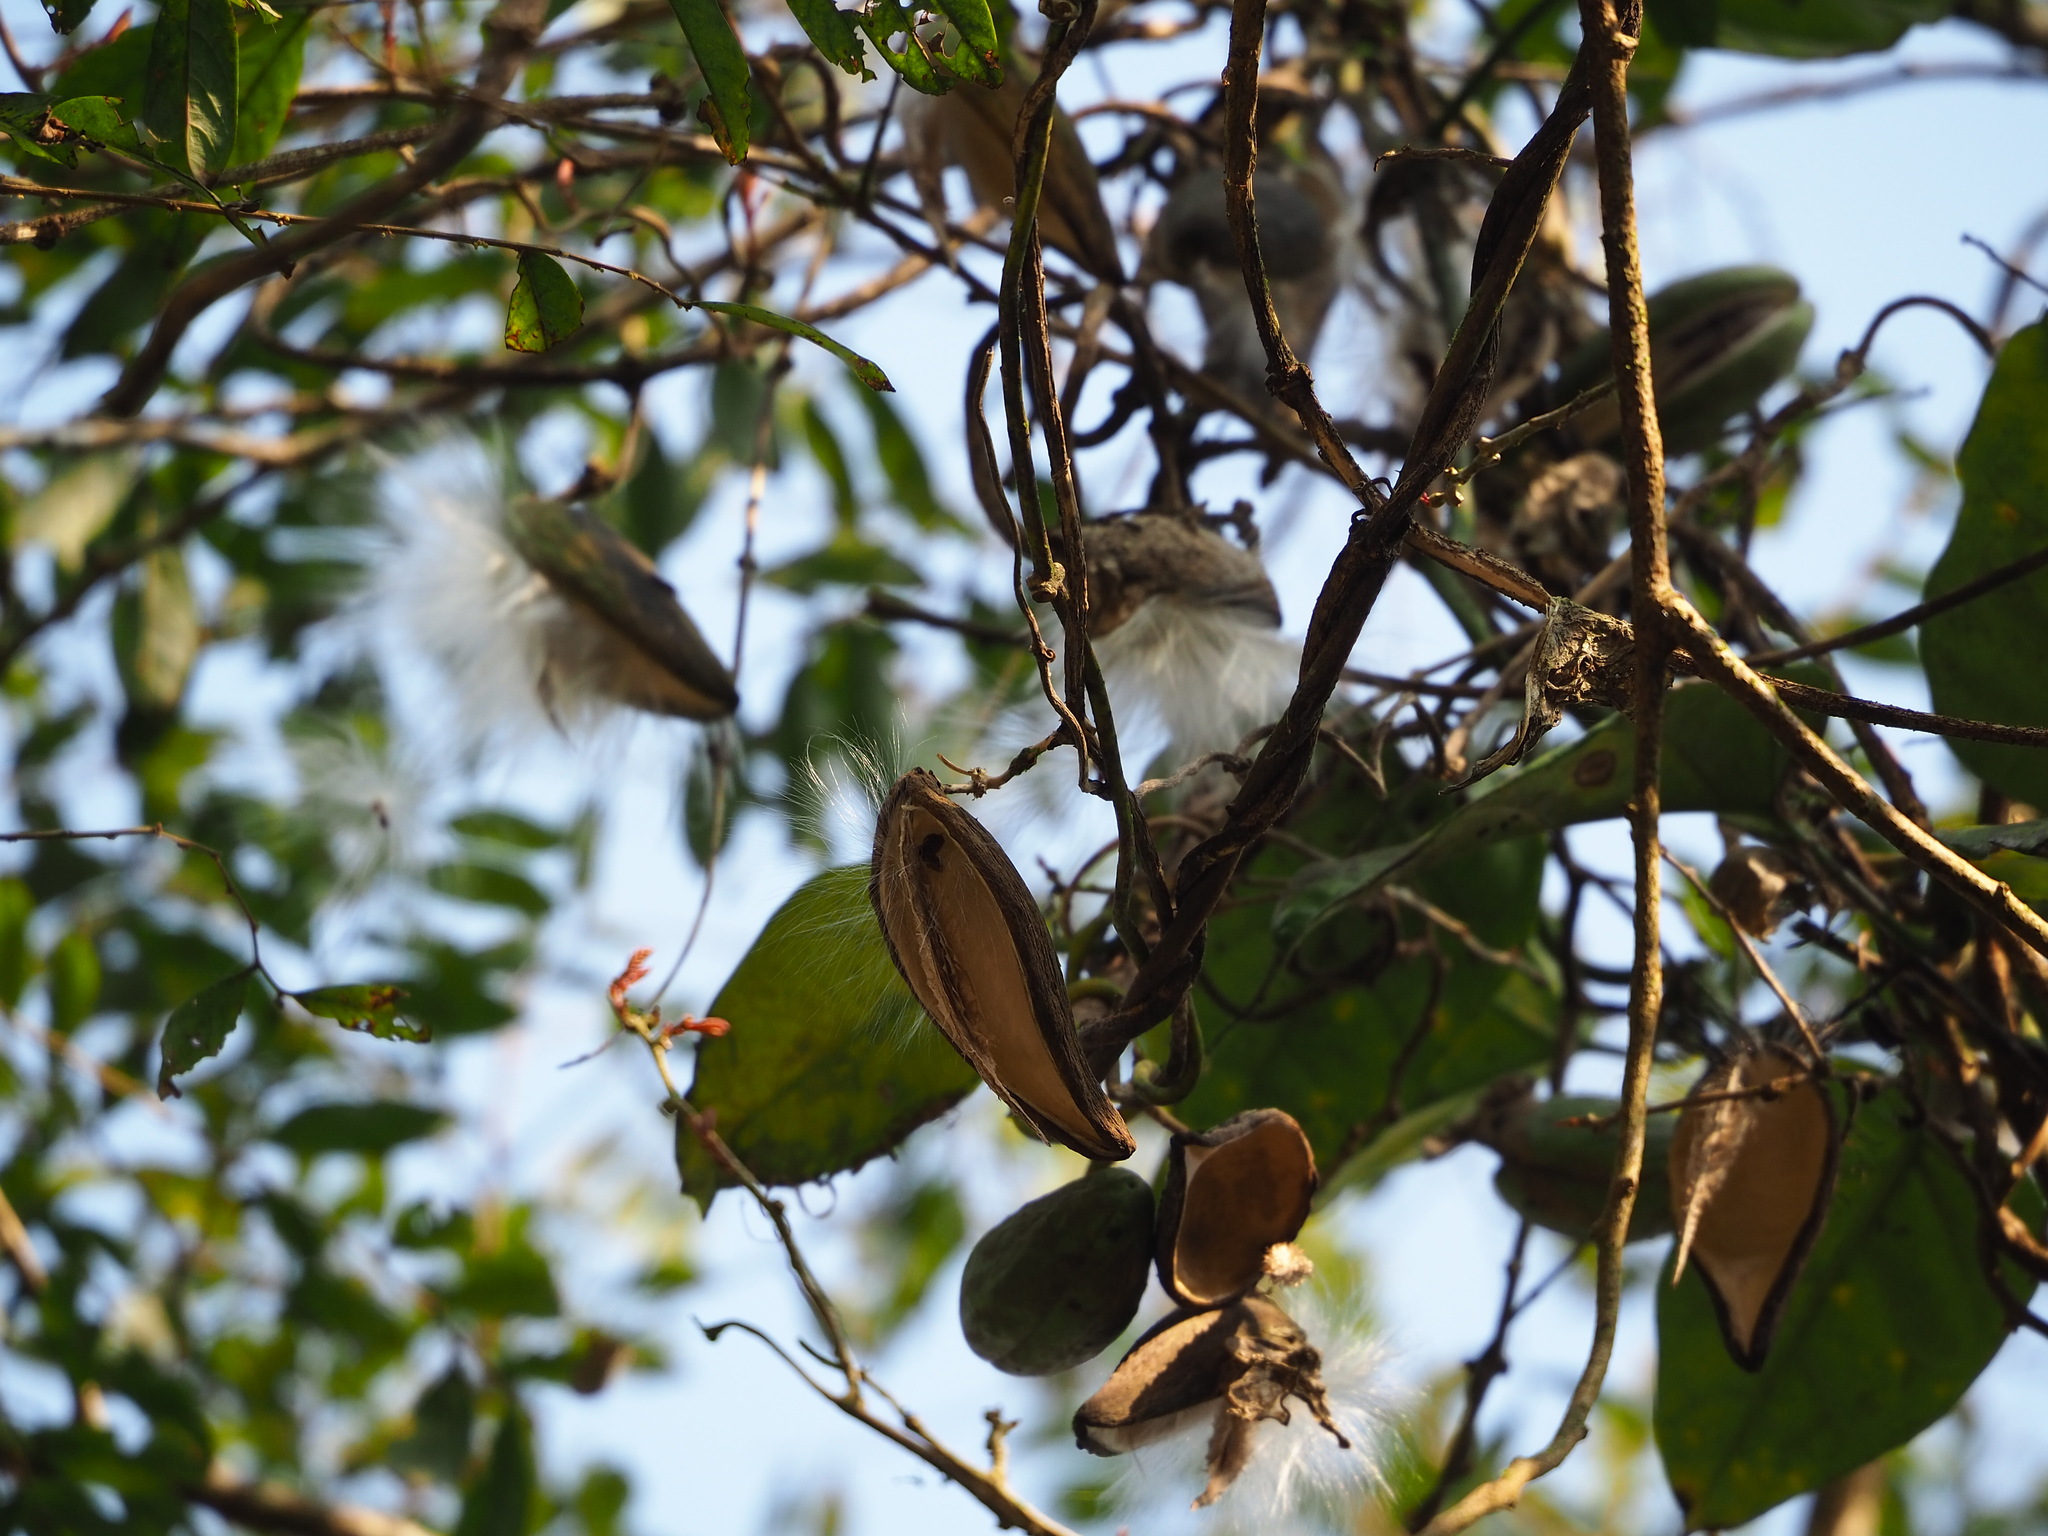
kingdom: Plantae
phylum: Tracheophyta
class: Magnoliopsida
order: Gentianales
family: Apocynaceae
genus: Sinomarsdenia
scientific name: Sinomarsdenia formosana
